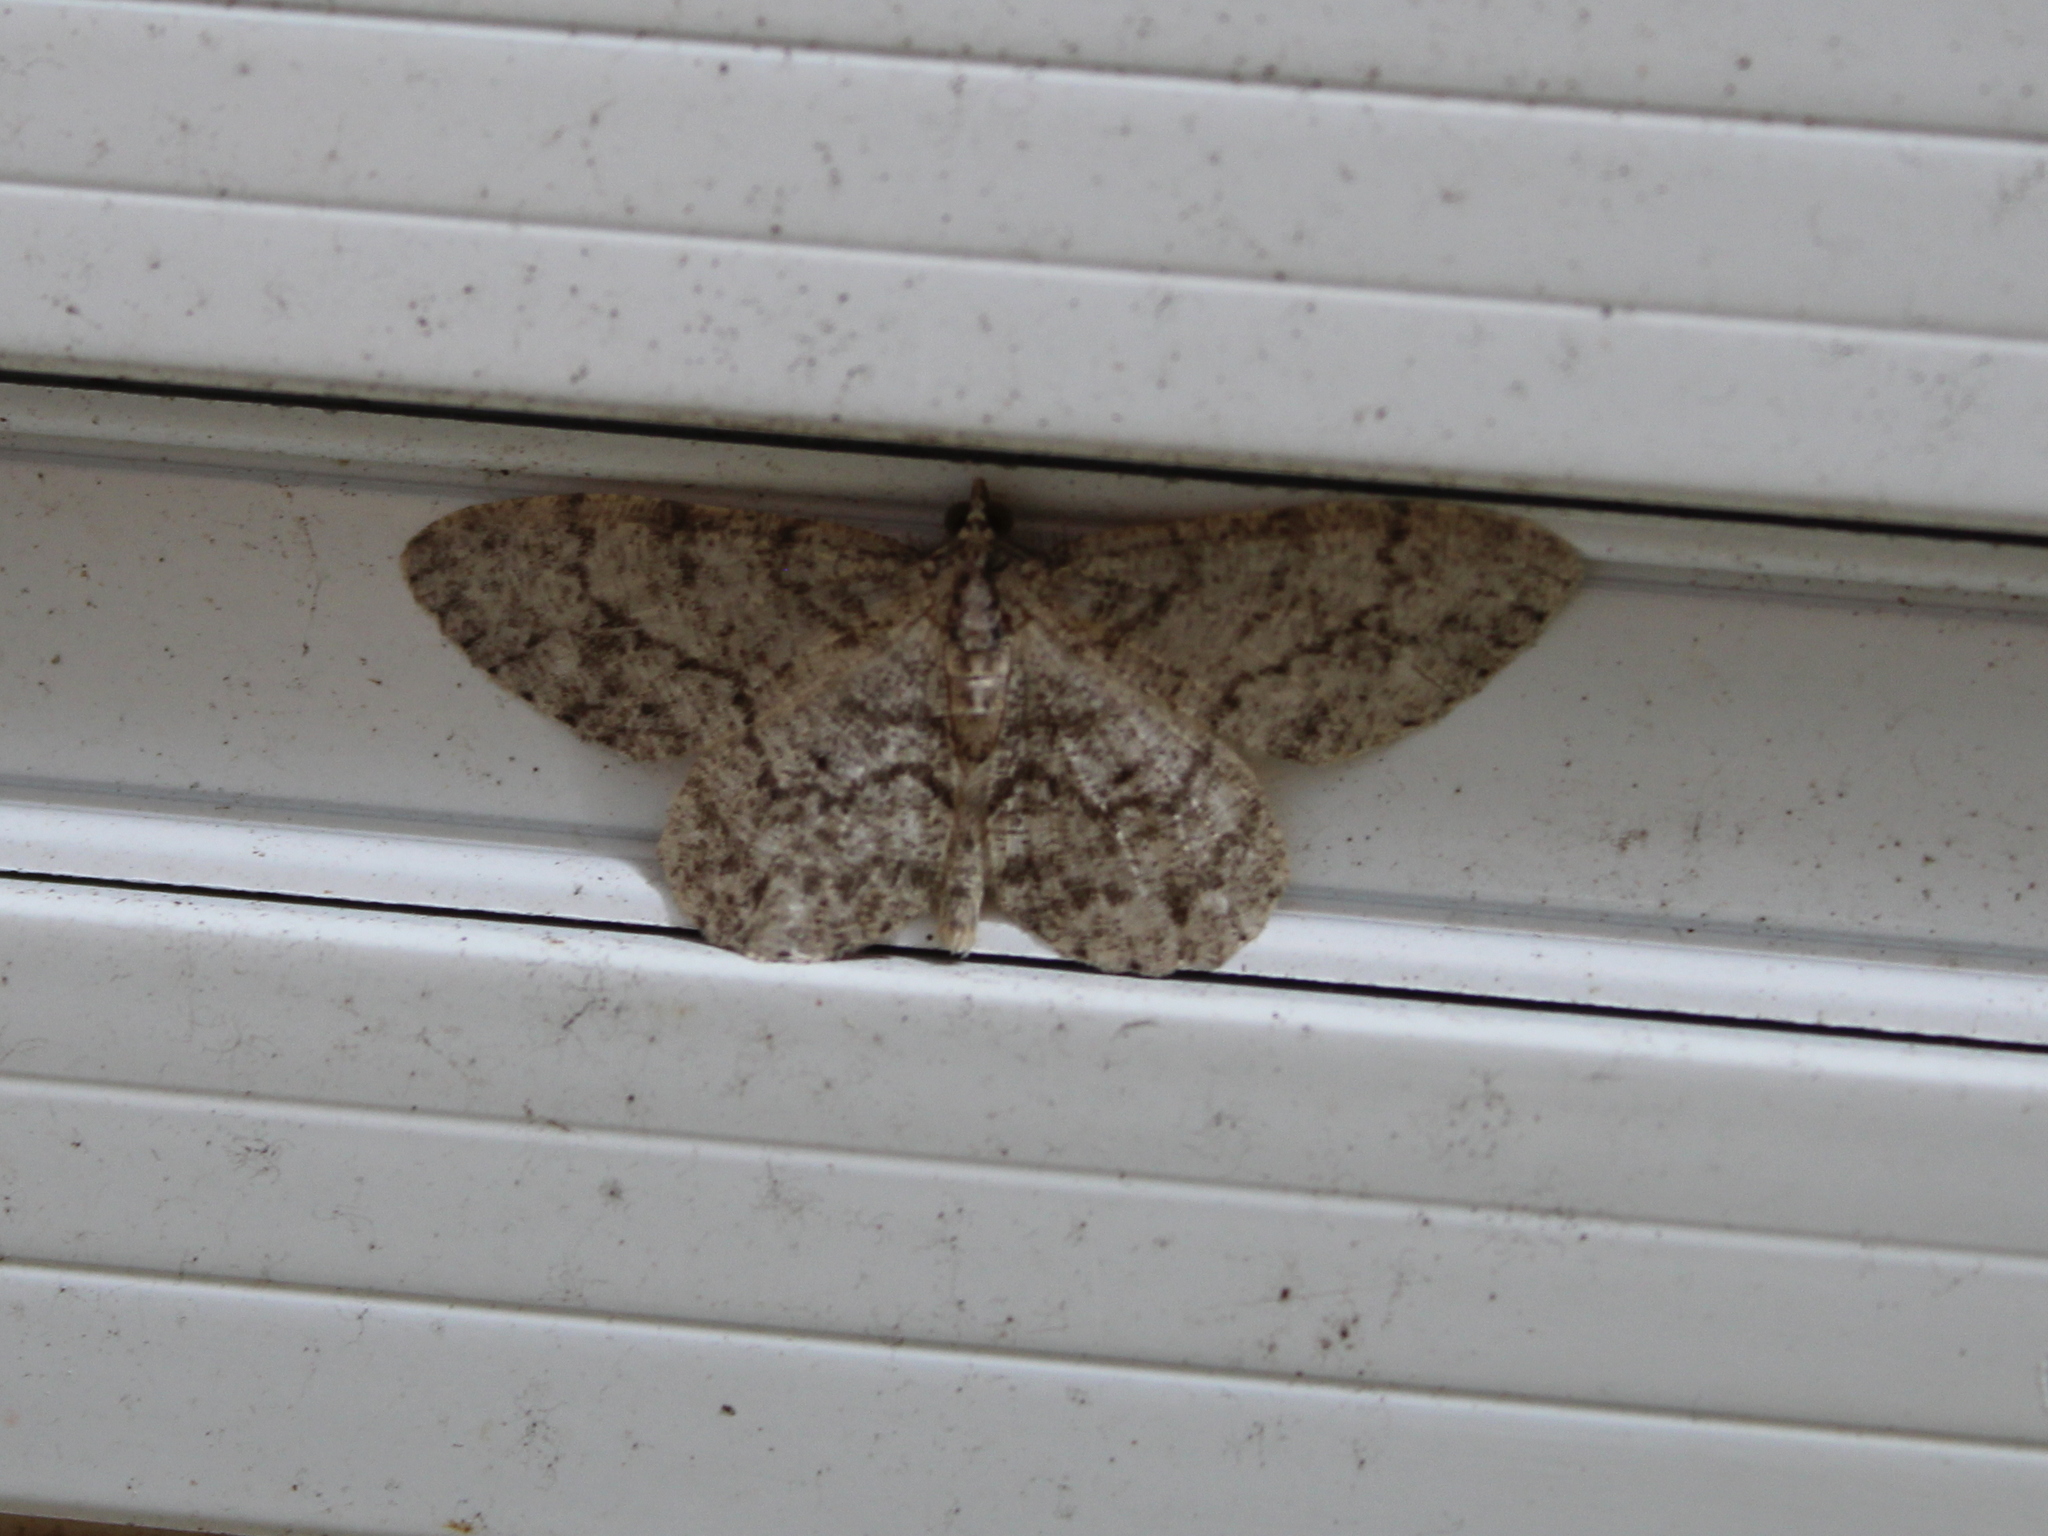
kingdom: Animalia
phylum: Arthropoda
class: Insecta
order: Lepidoptera
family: Geometridae
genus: Protoboarmia
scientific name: Protoboarmia porcelaria
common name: Porcelain gray
